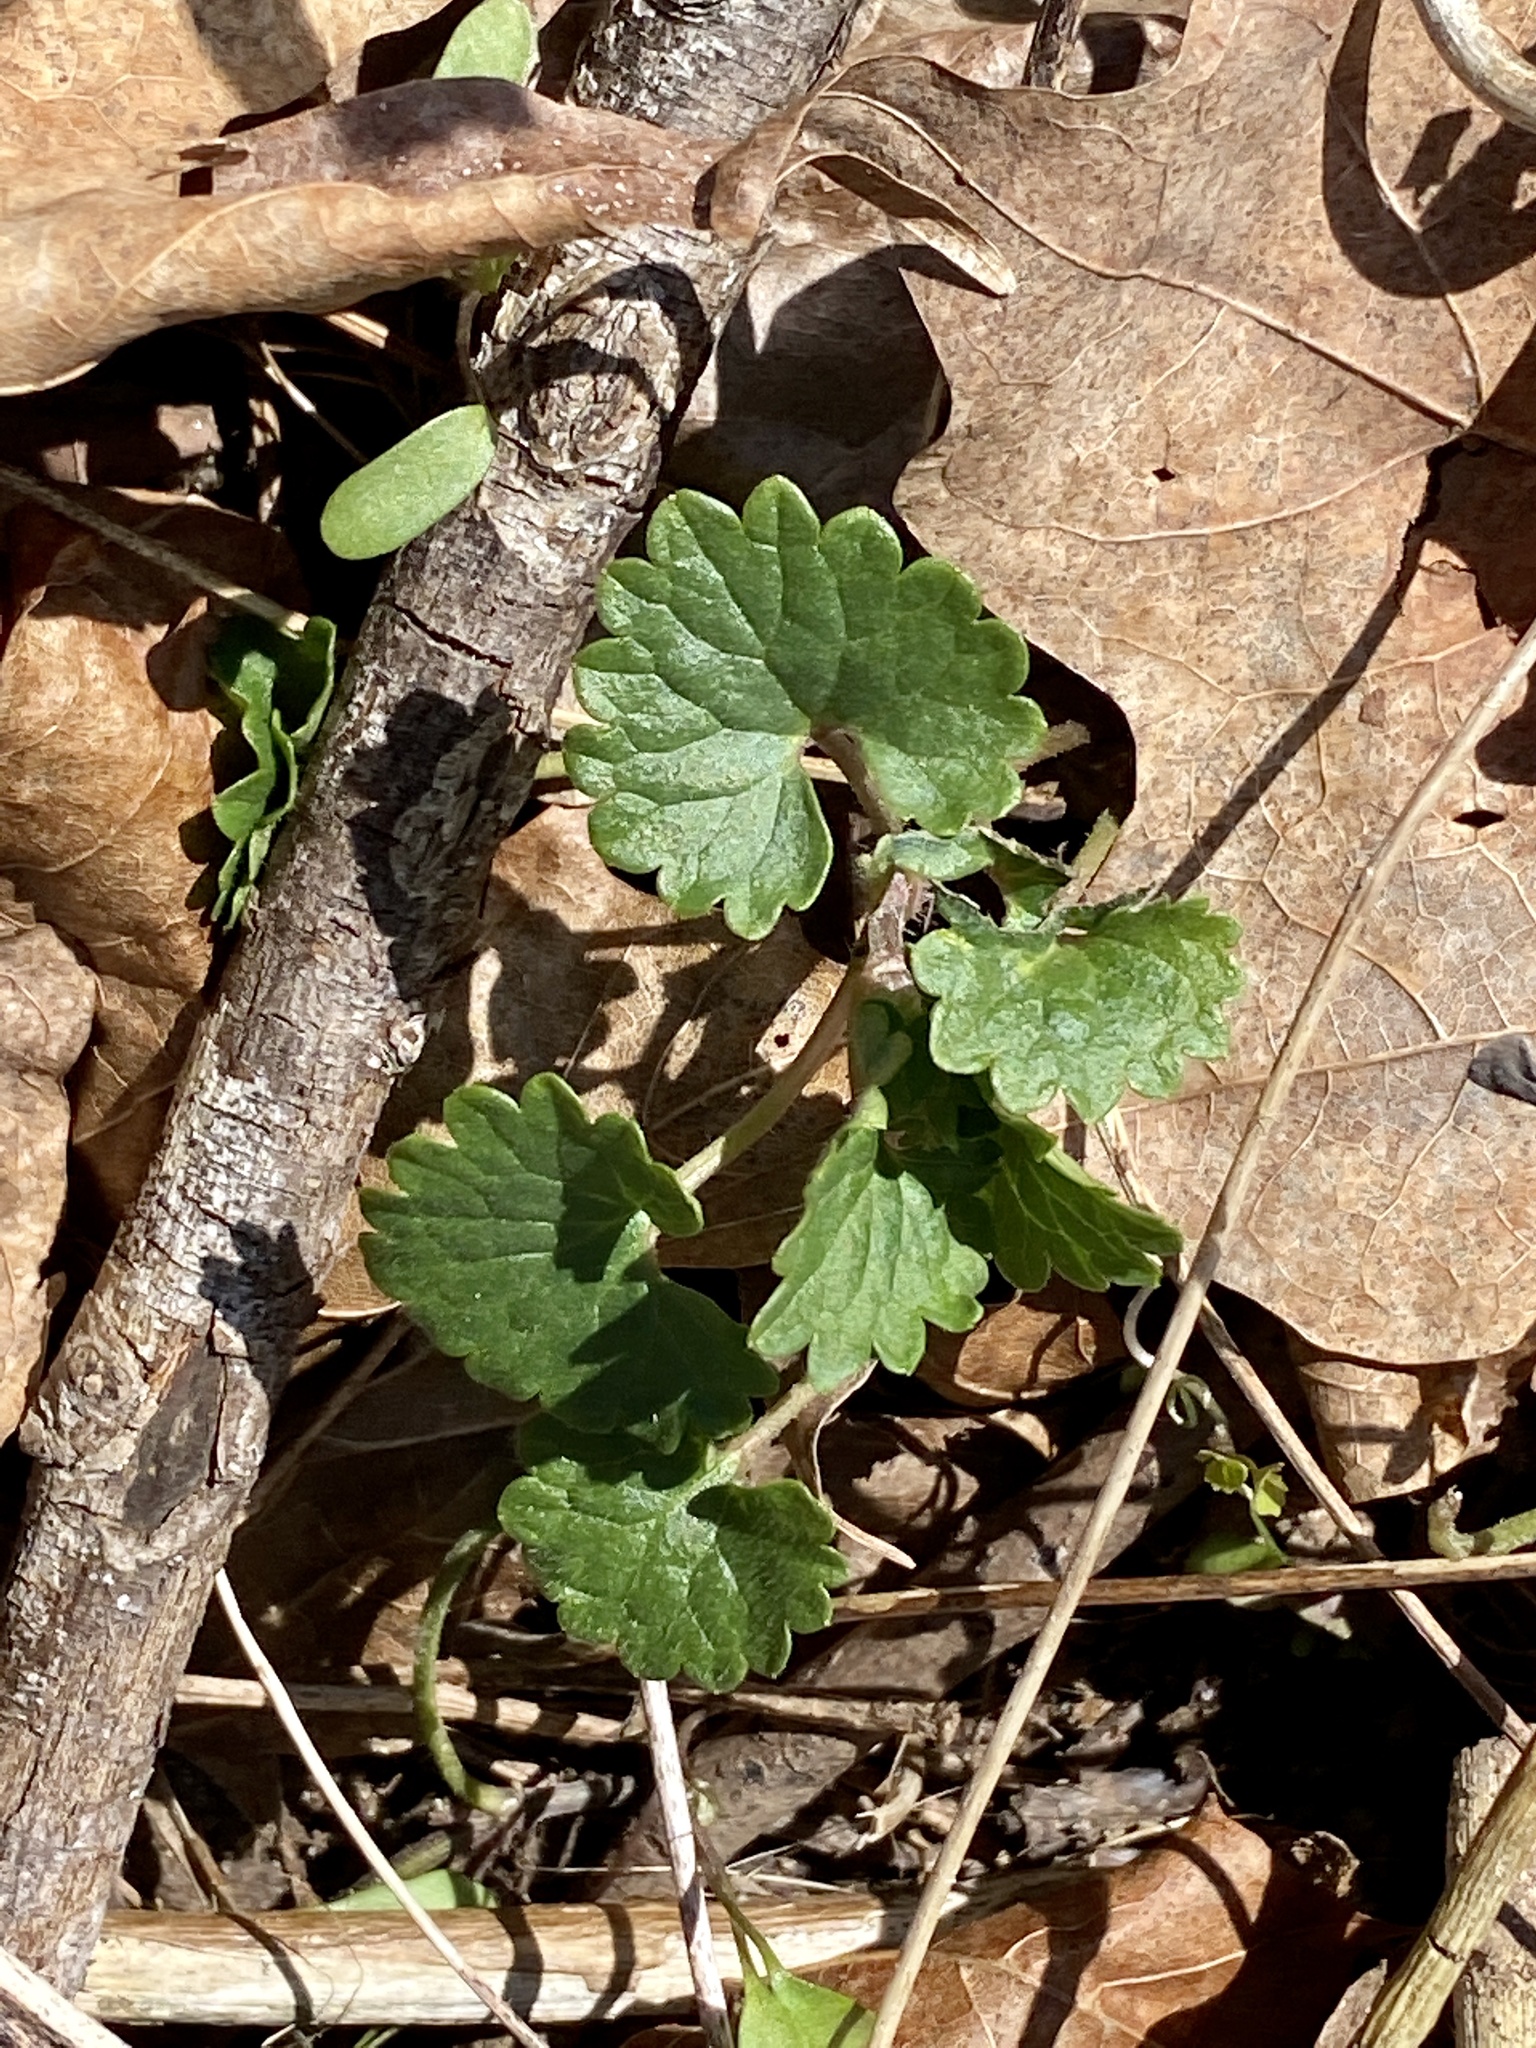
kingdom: Plantae
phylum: Tracheophyta
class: Magnoliopsida
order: Lamiales
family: Lamiaceae
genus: Glechoma
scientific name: Glechoma hederacea
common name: Ground ivy
